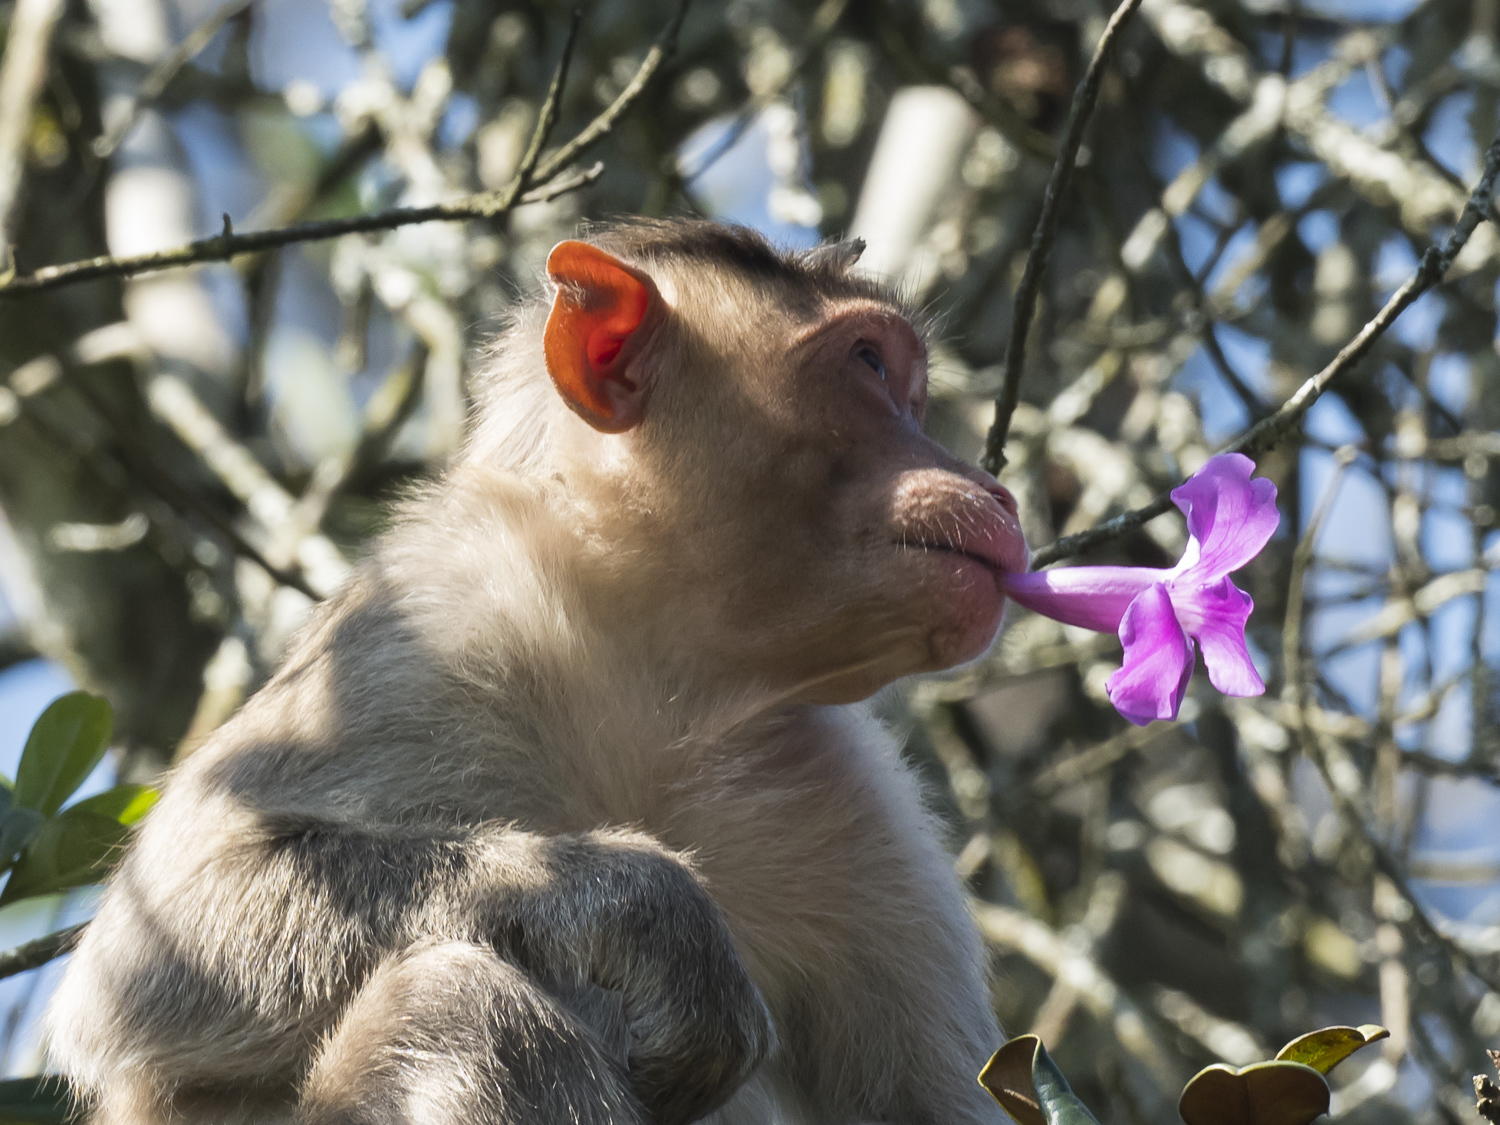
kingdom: Animalia
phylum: Chordata
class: Mammalia
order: Primates
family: Cercopithecidae
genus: Macaca
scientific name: Macaca radiata
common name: Bonnet macaque
